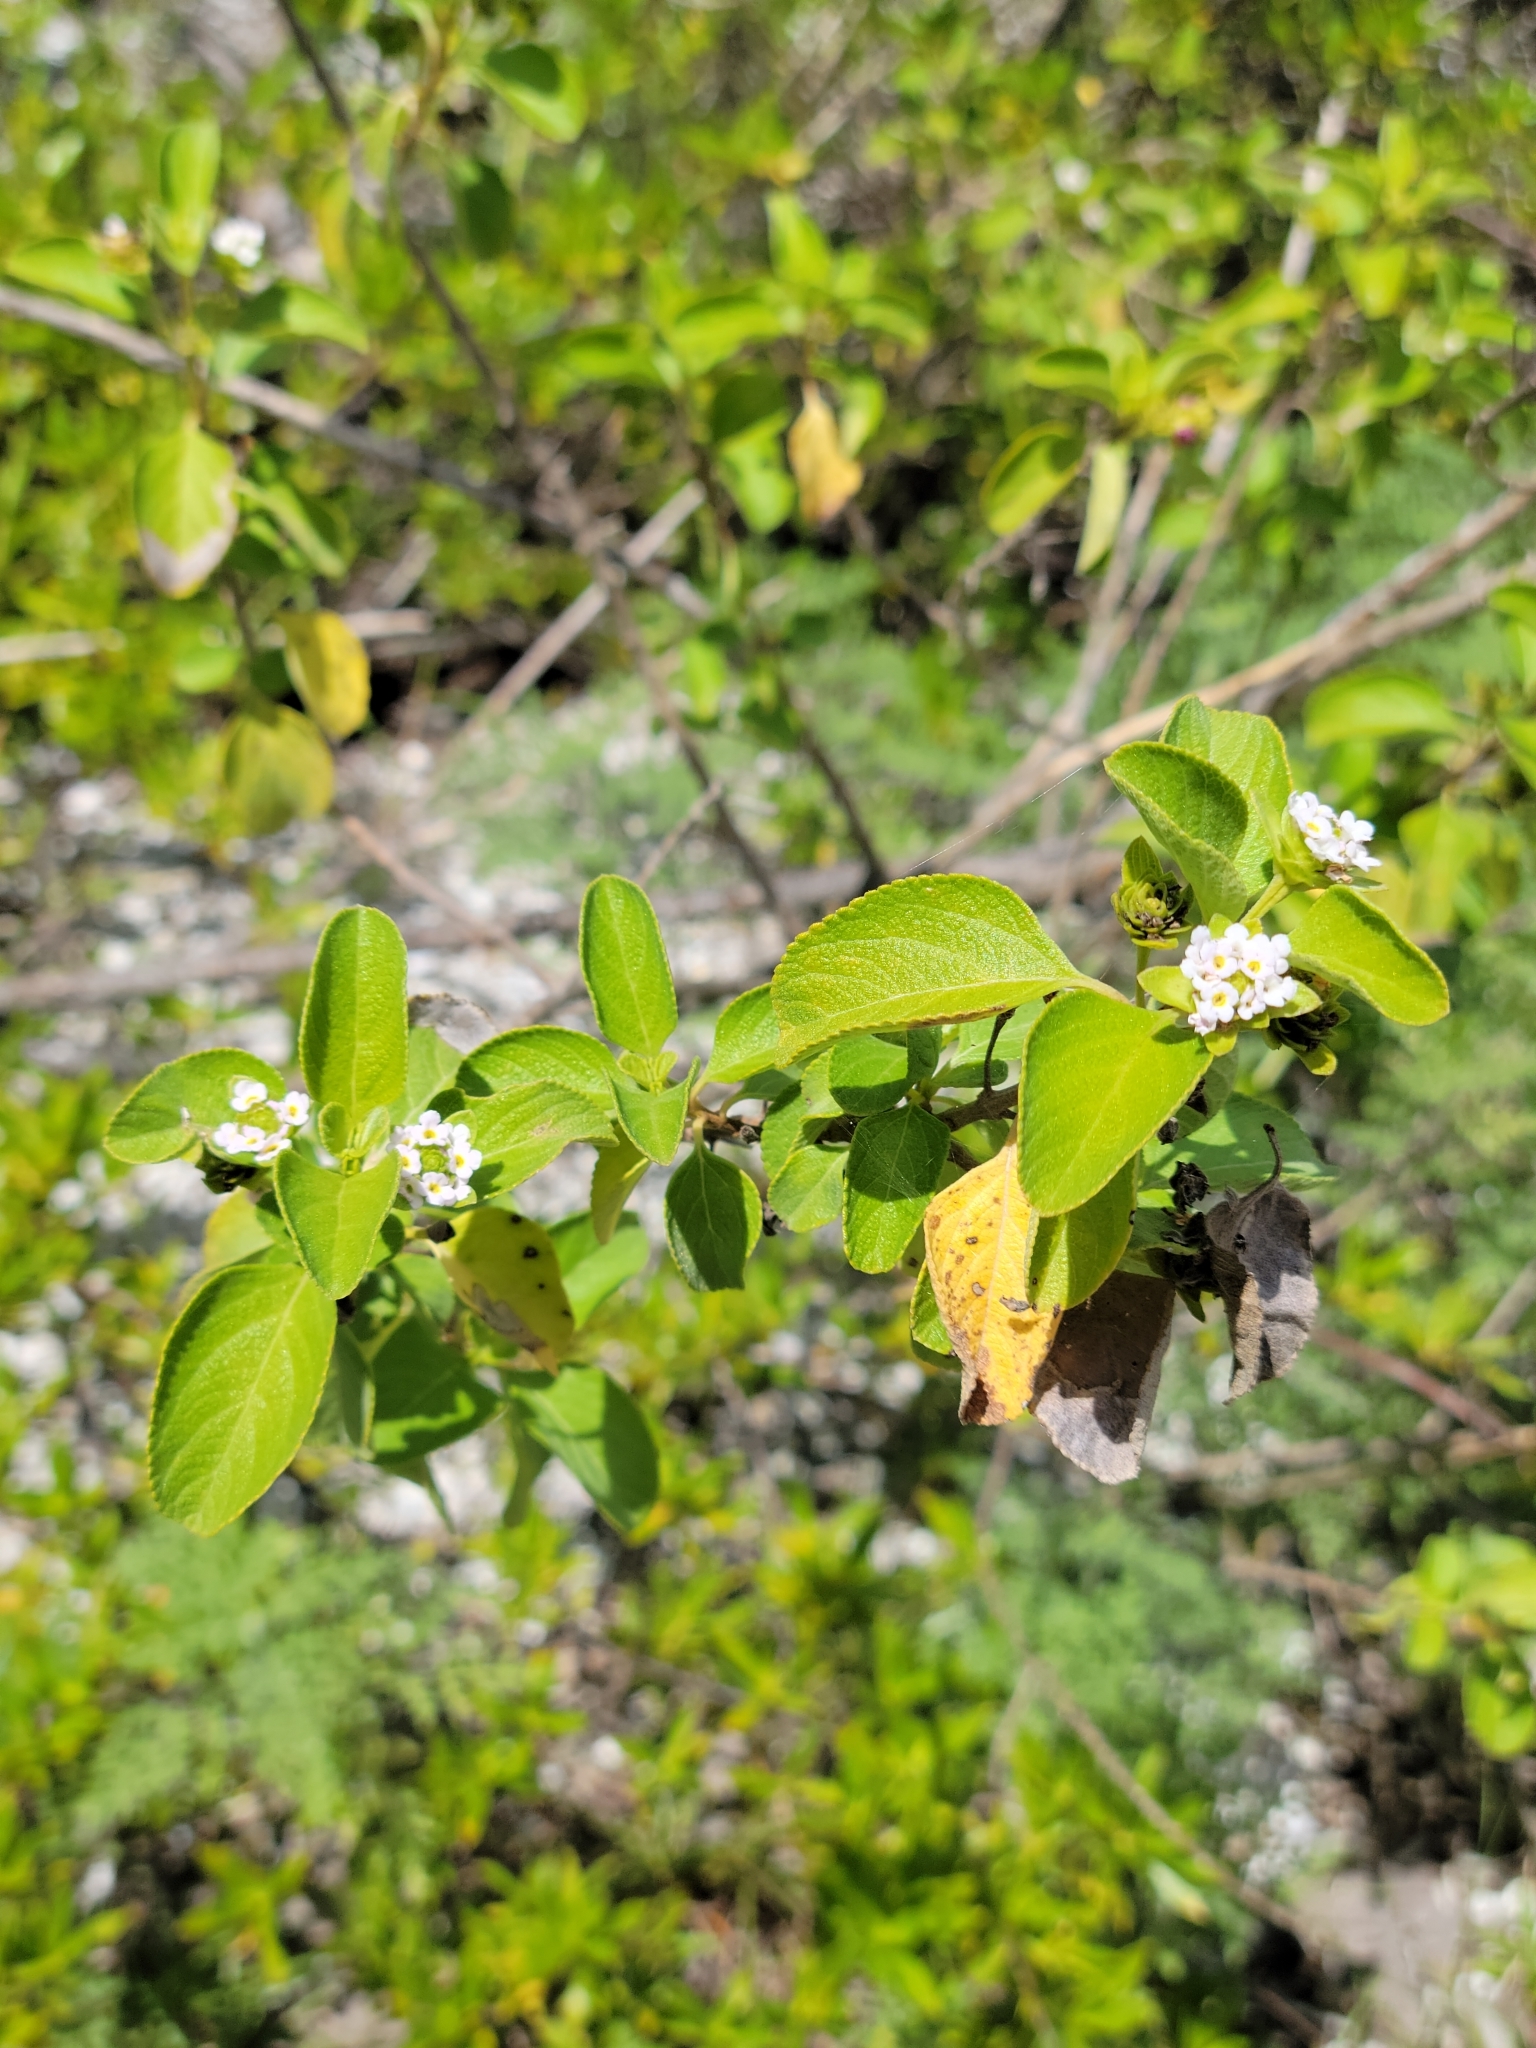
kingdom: Plantae
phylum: Tracheophyta
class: Magnoliopsida
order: Lamiales
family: Verbenaceae
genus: Lantana
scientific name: Lantana involucrata
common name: Black sage
